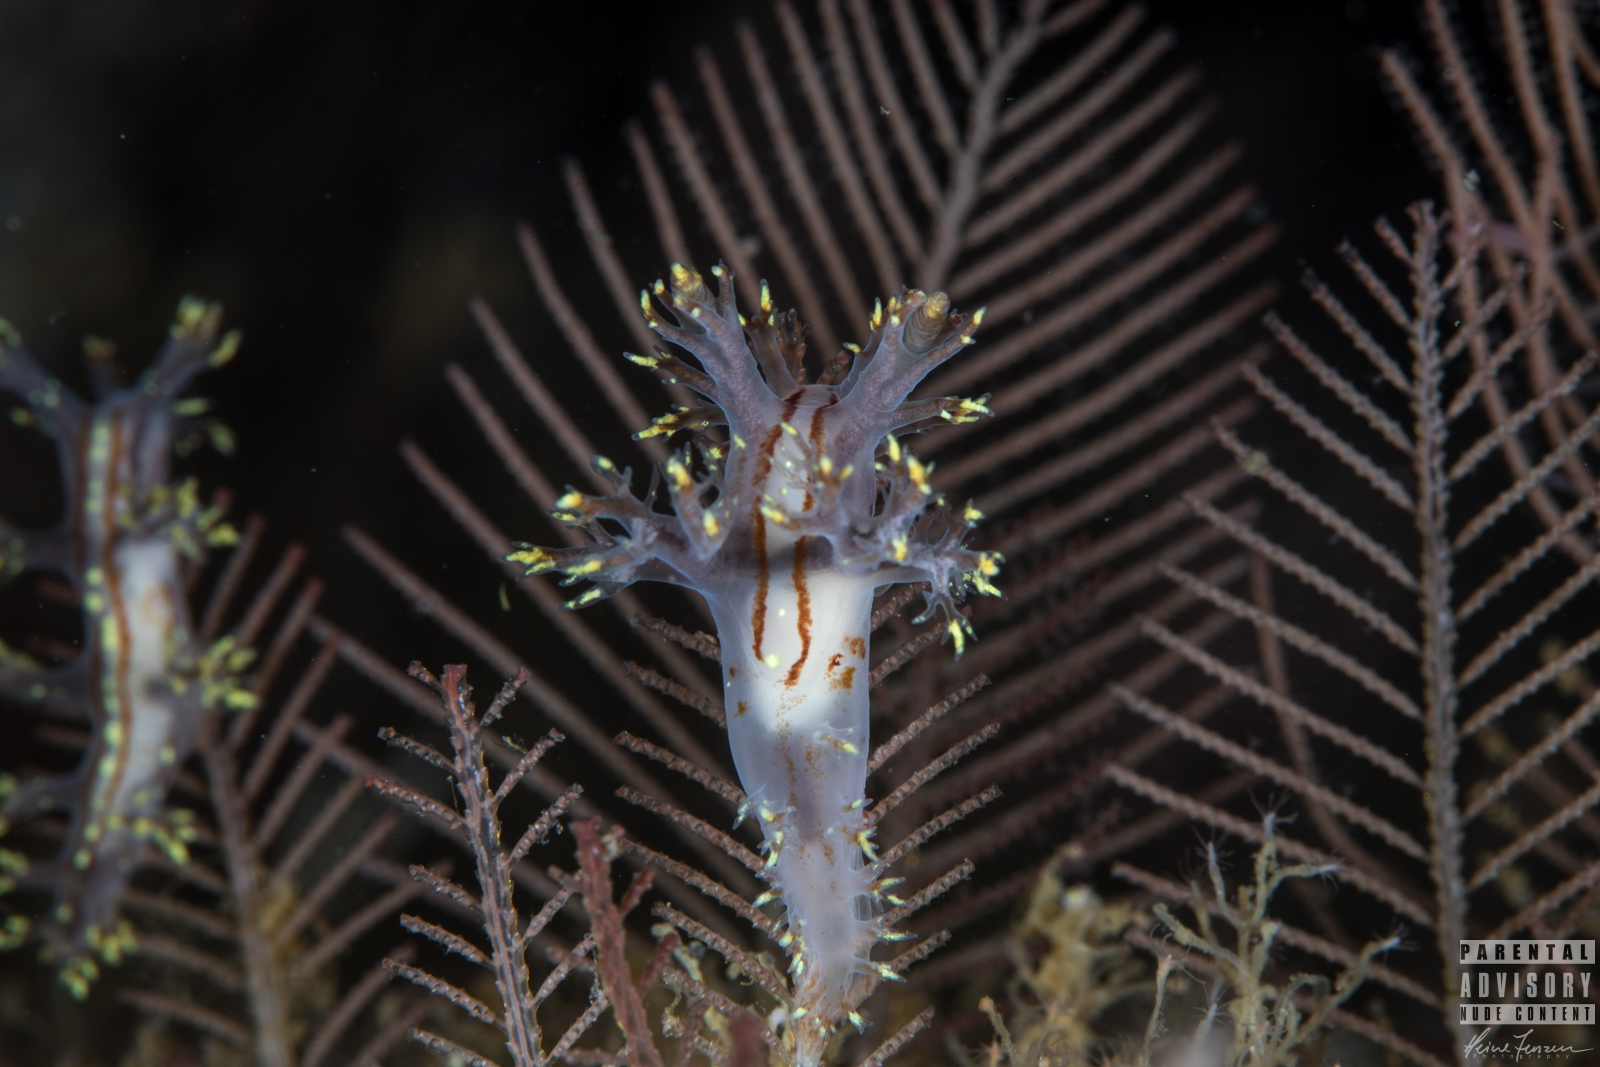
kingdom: Animalia
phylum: Mollusca
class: Gastropoda
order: Nudibranchia
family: Dendronotidae
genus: Dendronotus
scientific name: Dendronotus yrjargul
